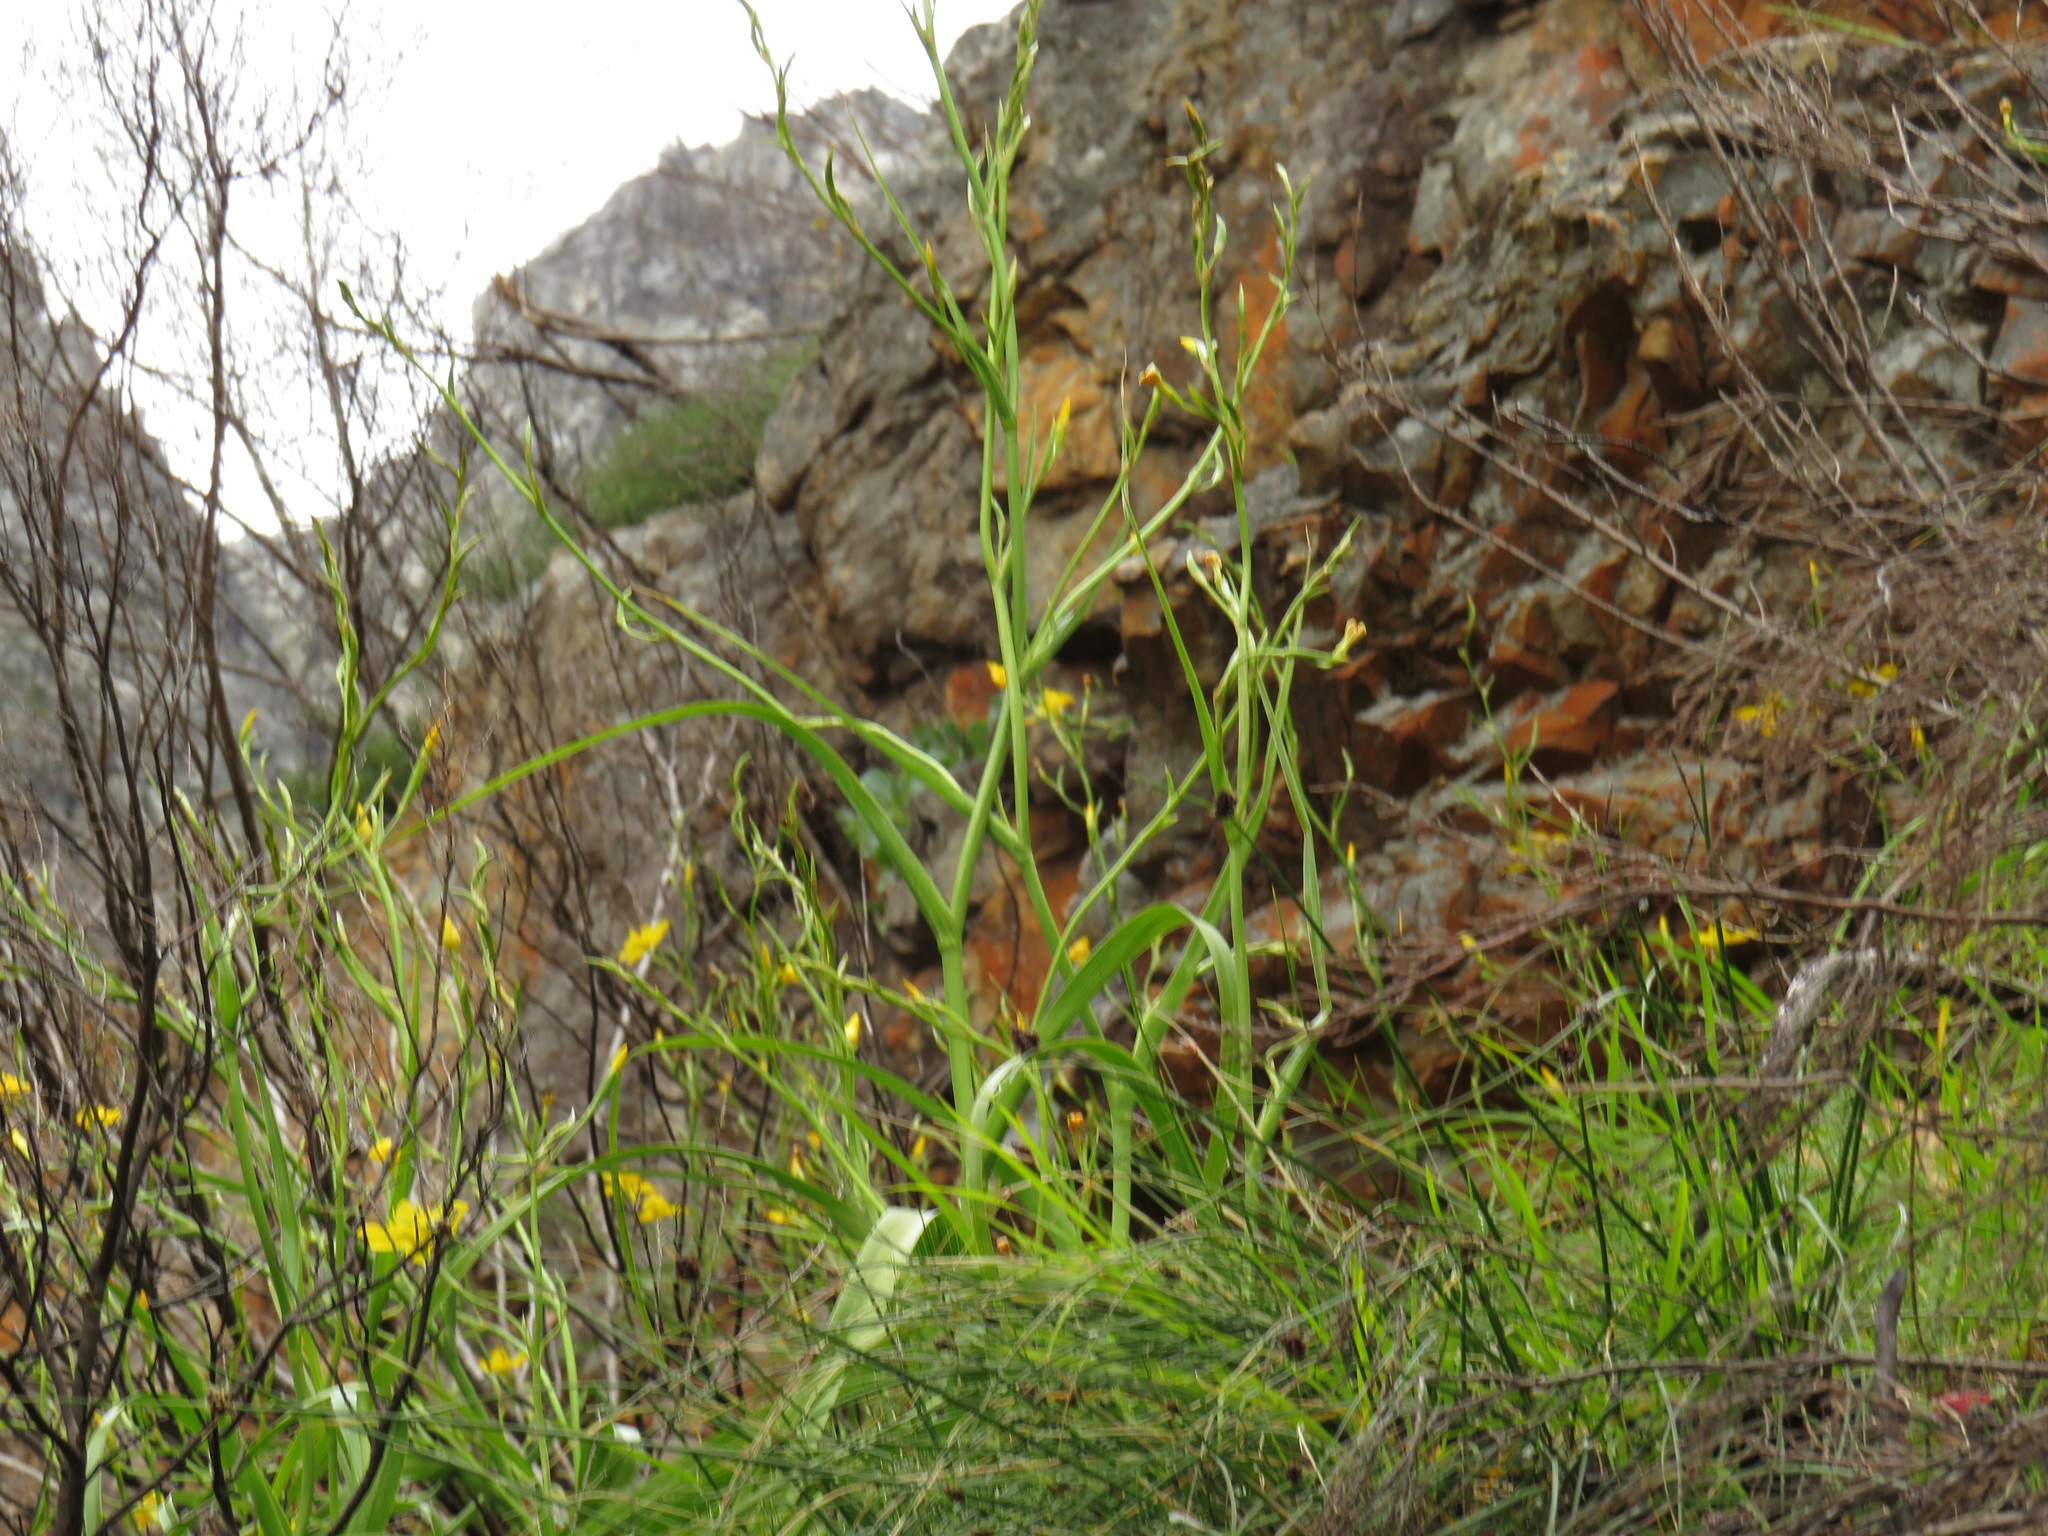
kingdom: Plantae
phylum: Tracheophyta
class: Liliopsida
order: Asparagales
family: Iridaceae
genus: Moraea
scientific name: Moraea ramosissima
